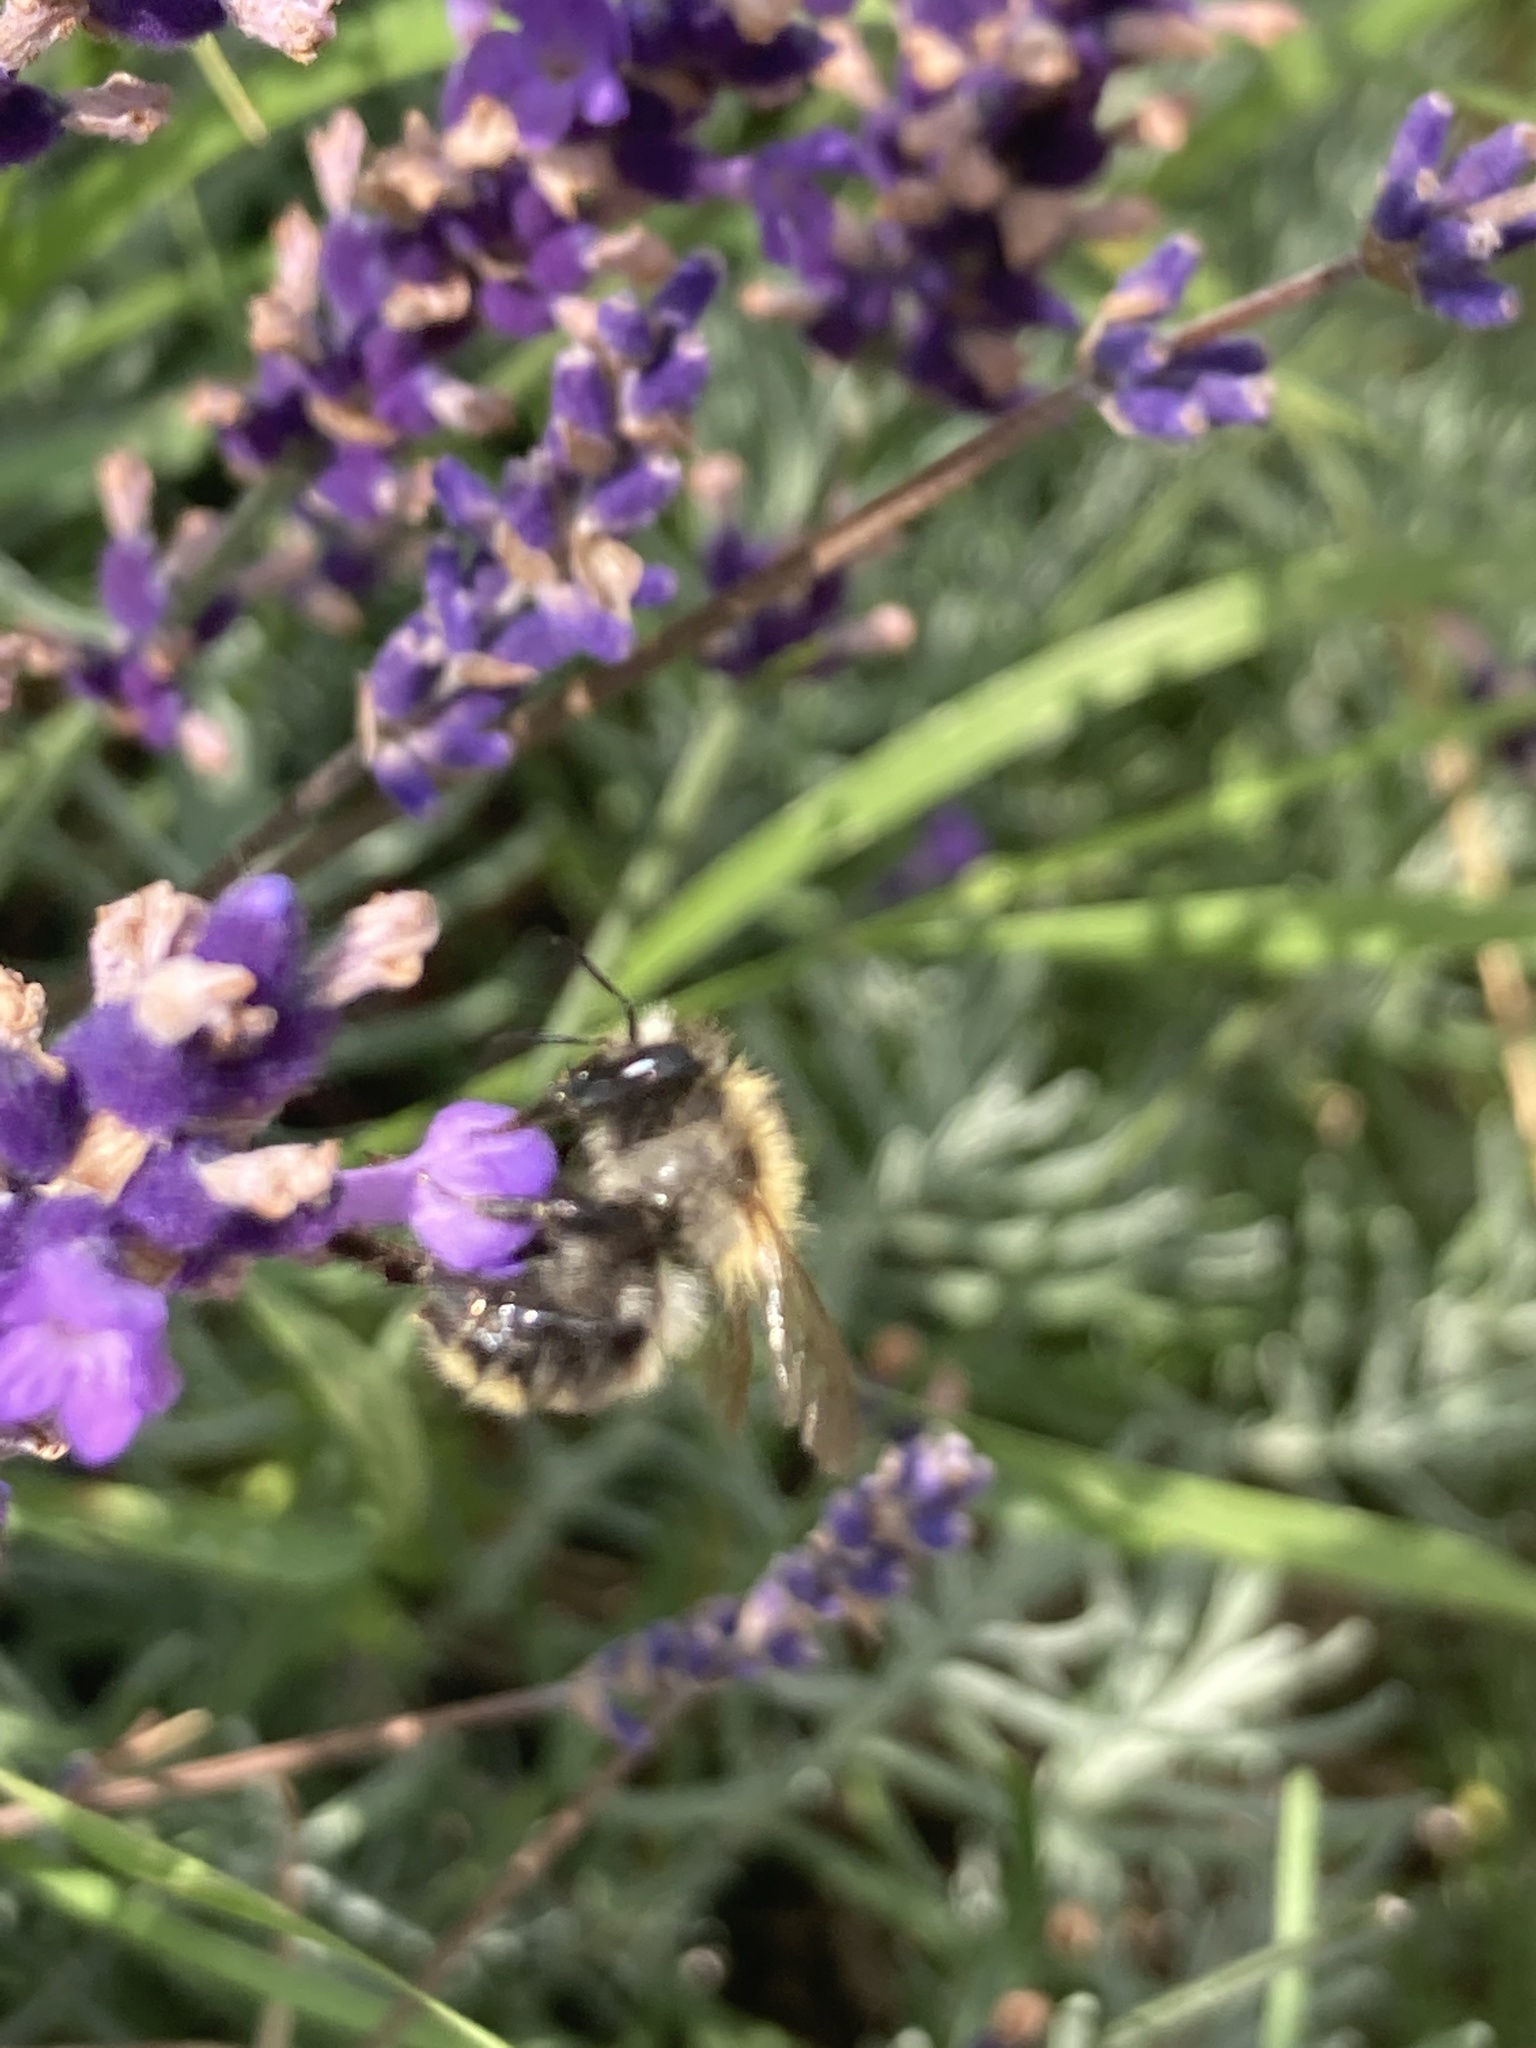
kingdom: Animalia
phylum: Arthropoda
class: Insecta
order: Hymenoptera
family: Apidae
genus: Bombus
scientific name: Bombus pascuorum
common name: Common carder bee
